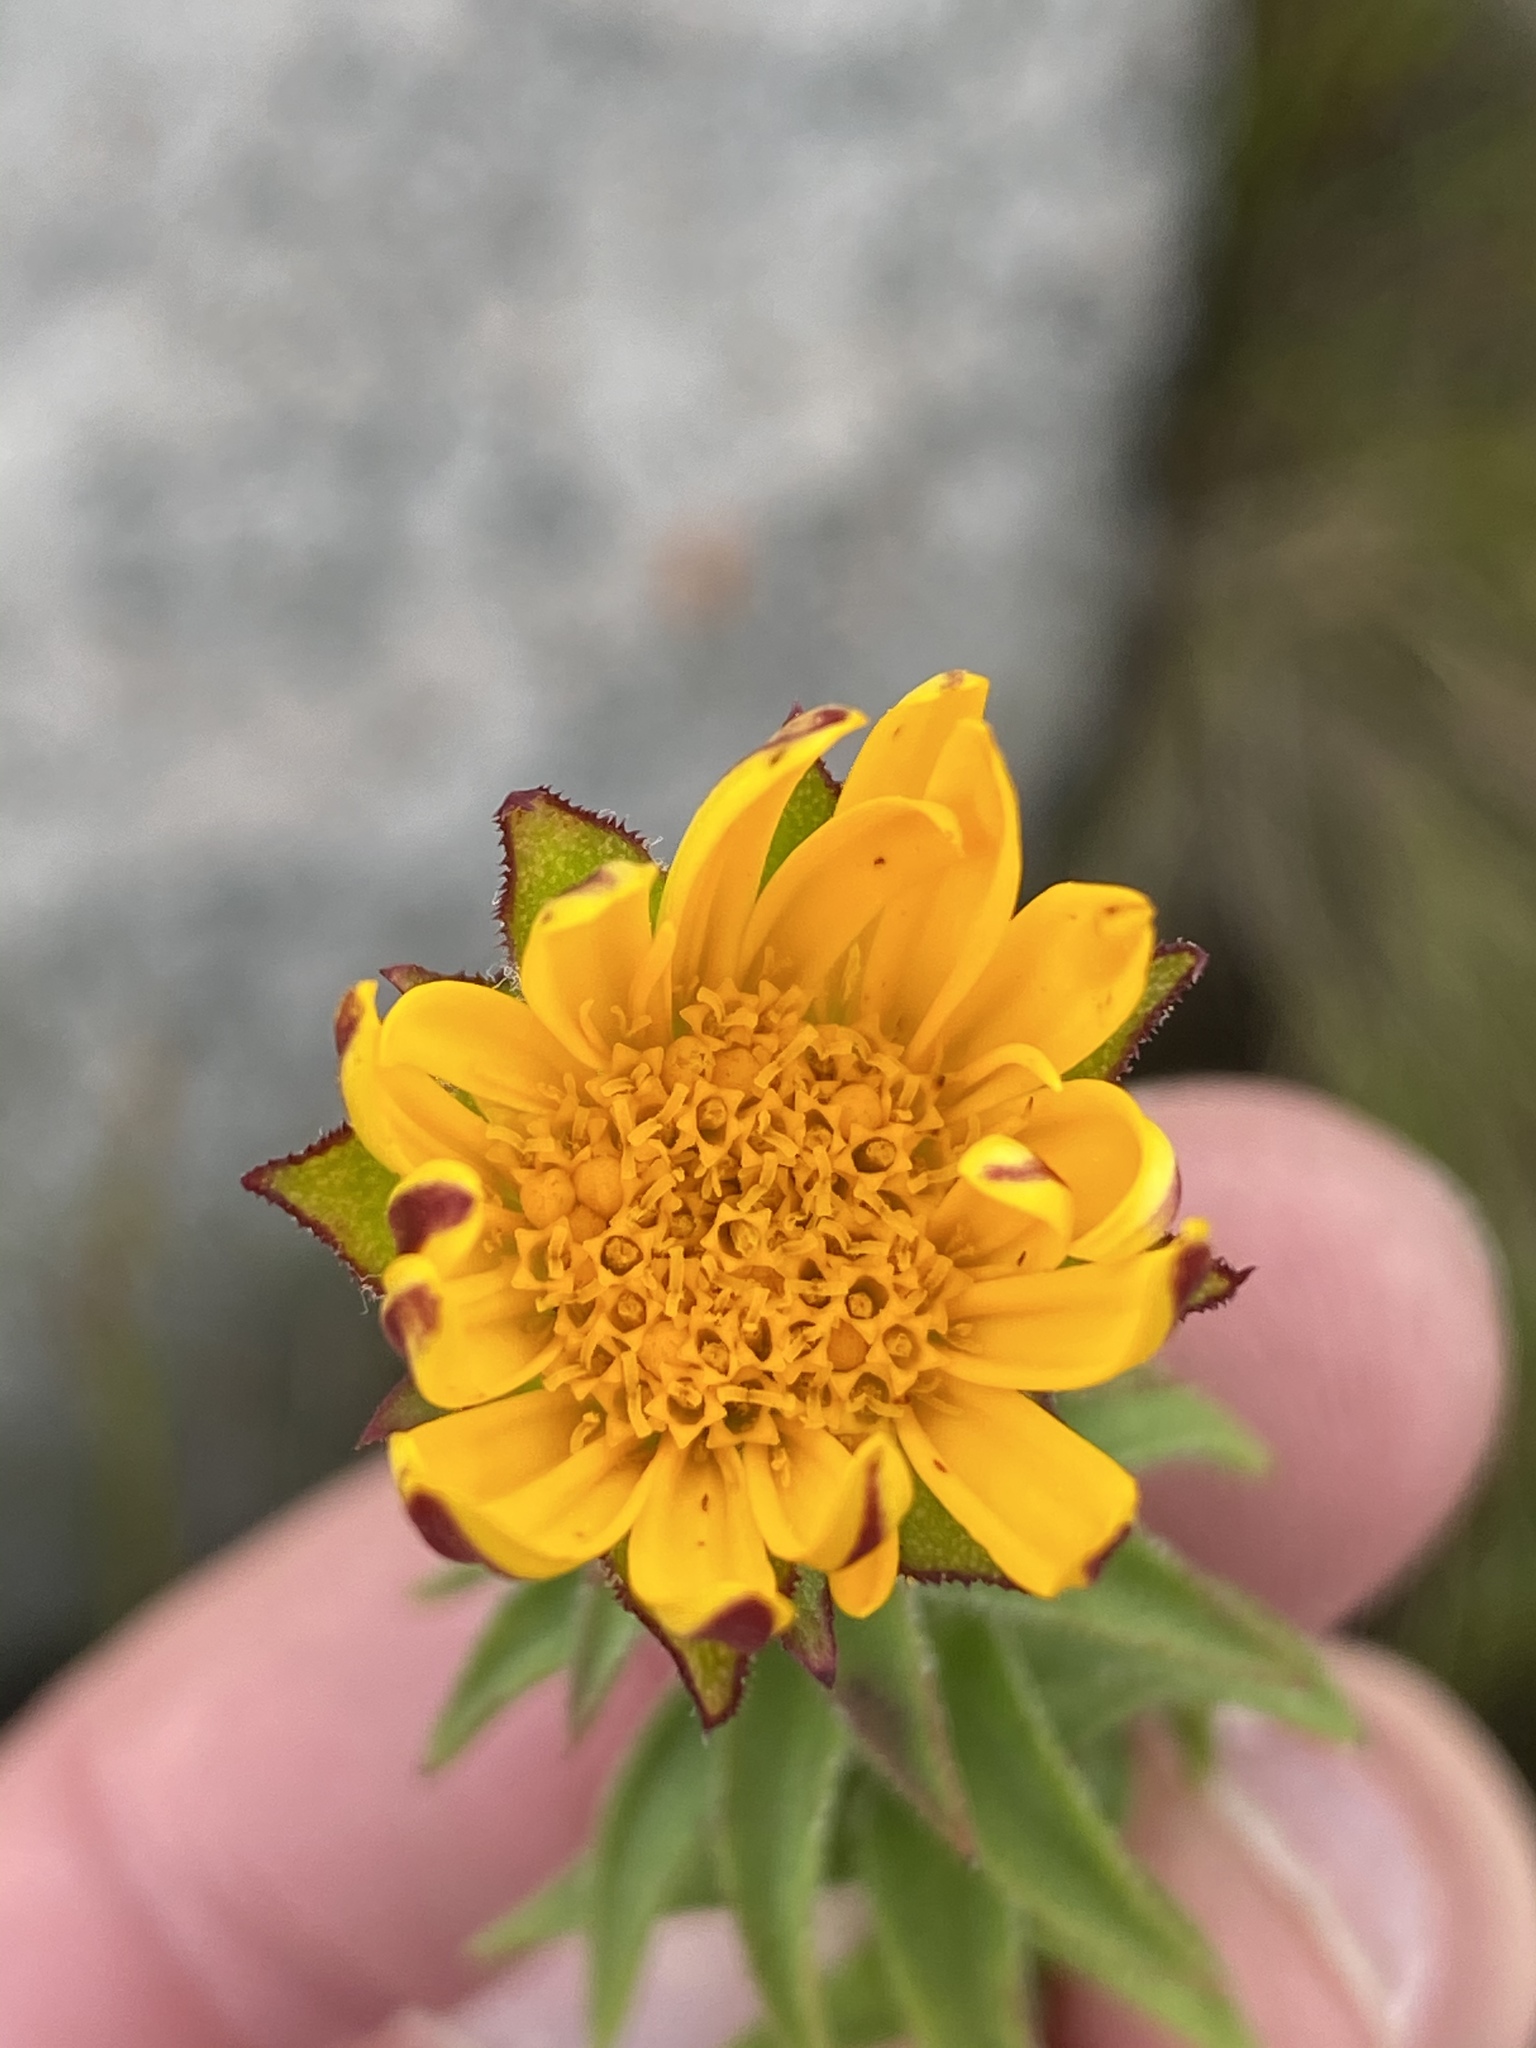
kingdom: Plantae
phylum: Tracheophyta
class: Magnoliopsida
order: Asterales
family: Asteraceae
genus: Oedera
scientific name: Oedera imbricata
